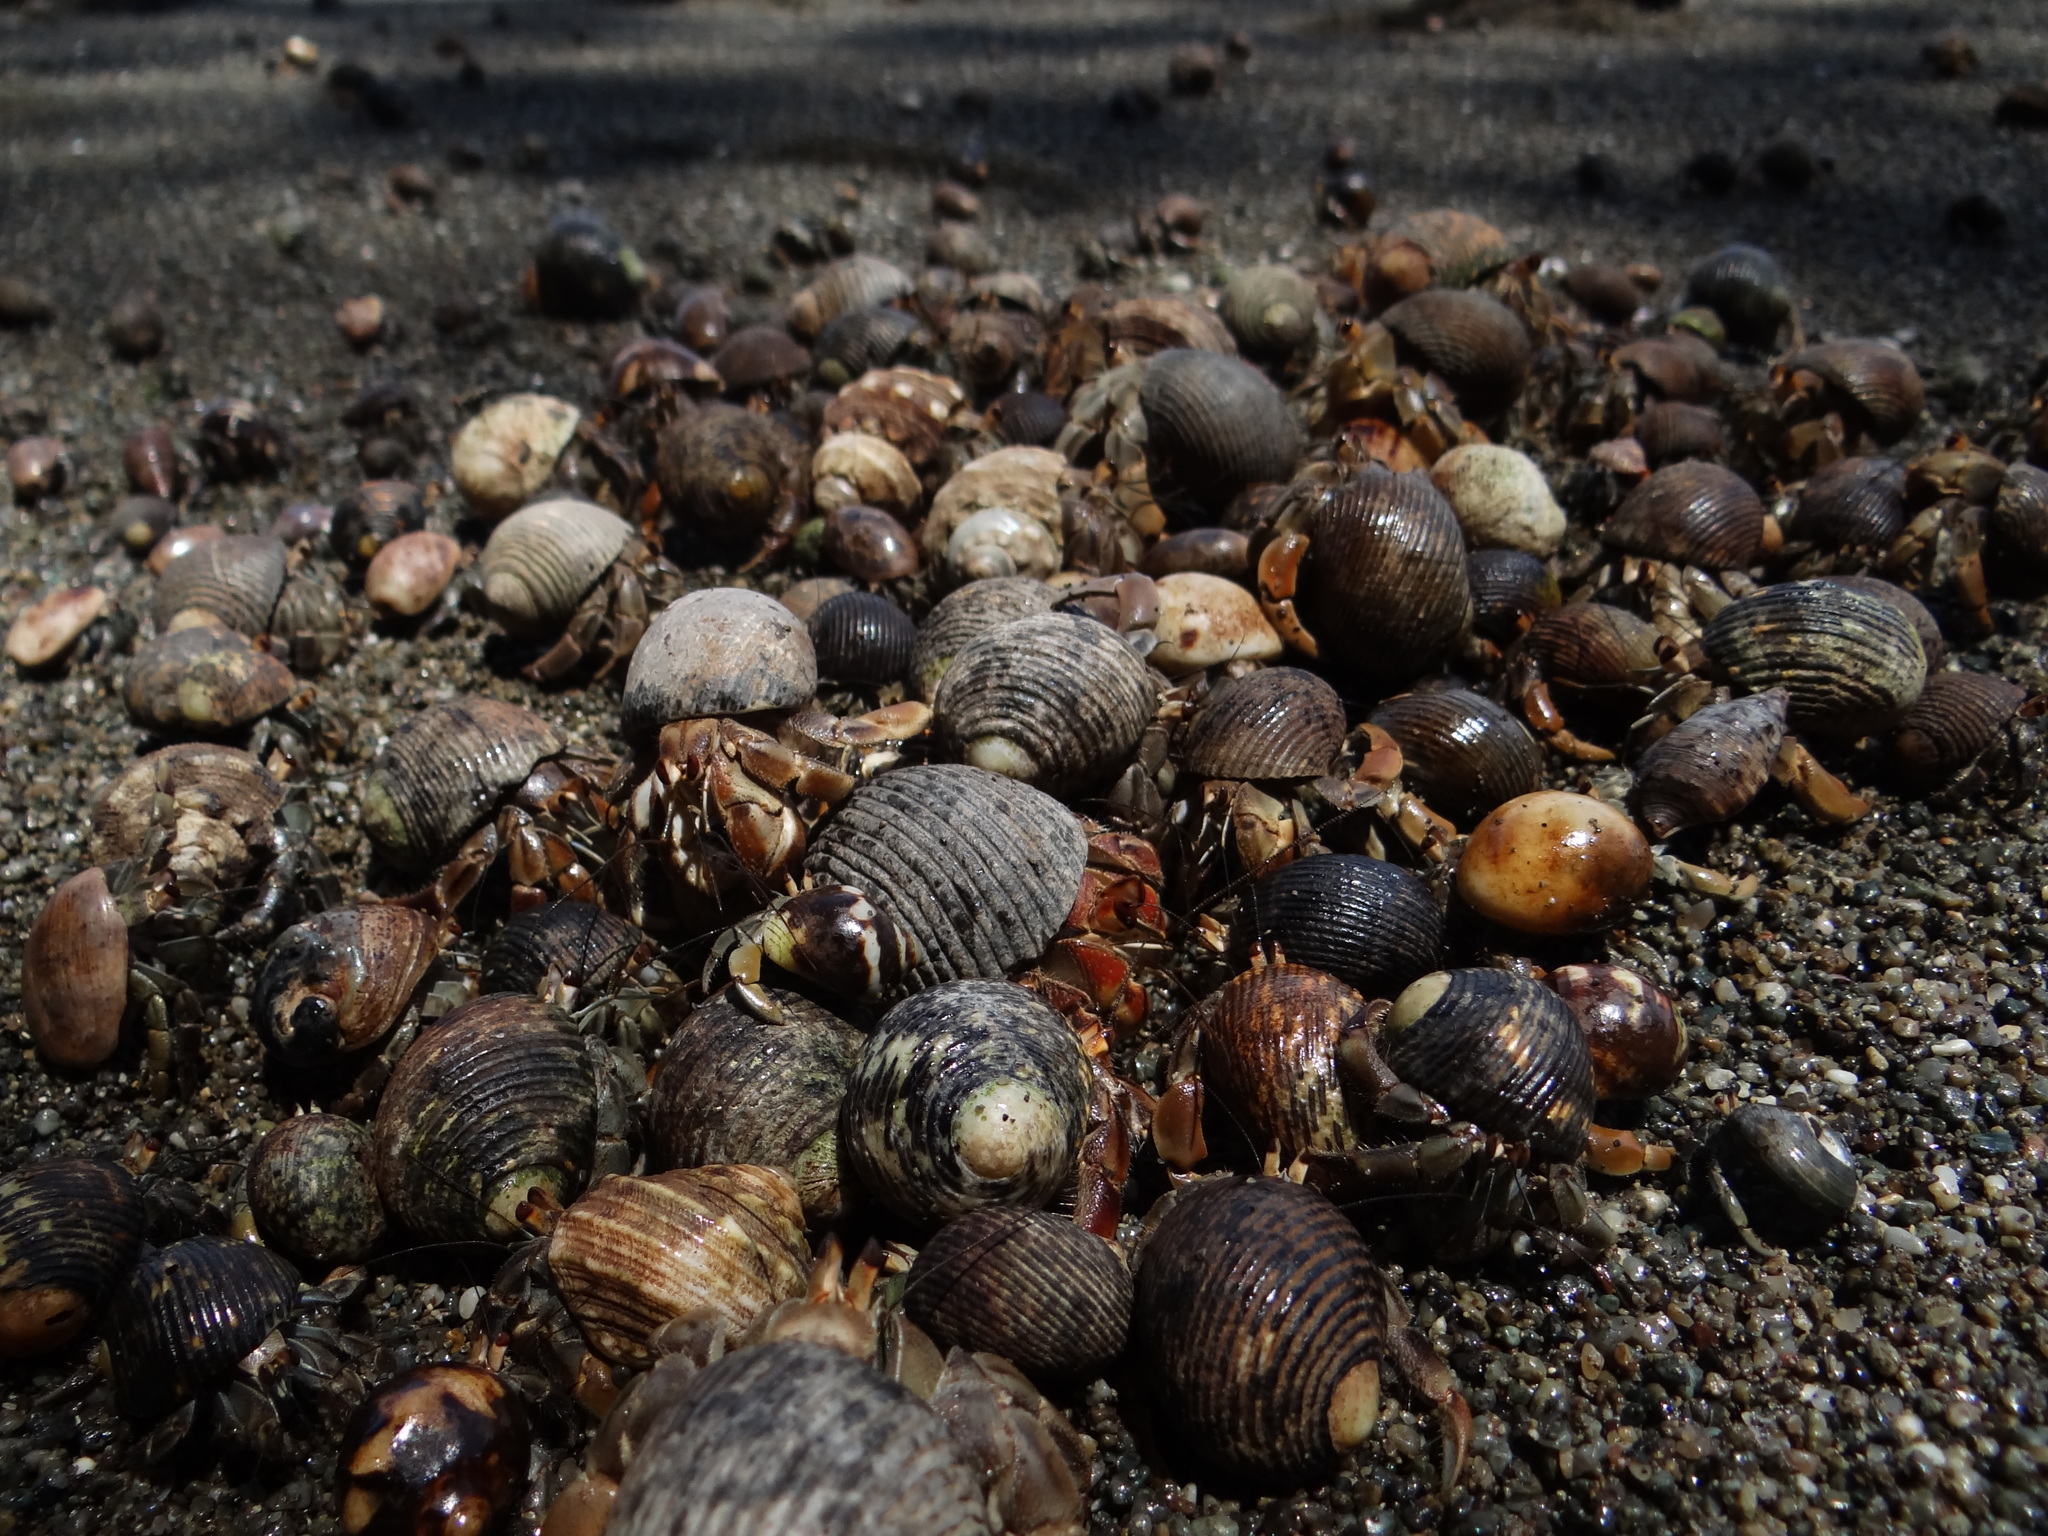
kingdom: Animalia
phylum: Arthropoda
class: Malacostraca
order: Decapoda
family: Coenobitidae
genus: Coenobita
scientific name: Coenobita compressus
